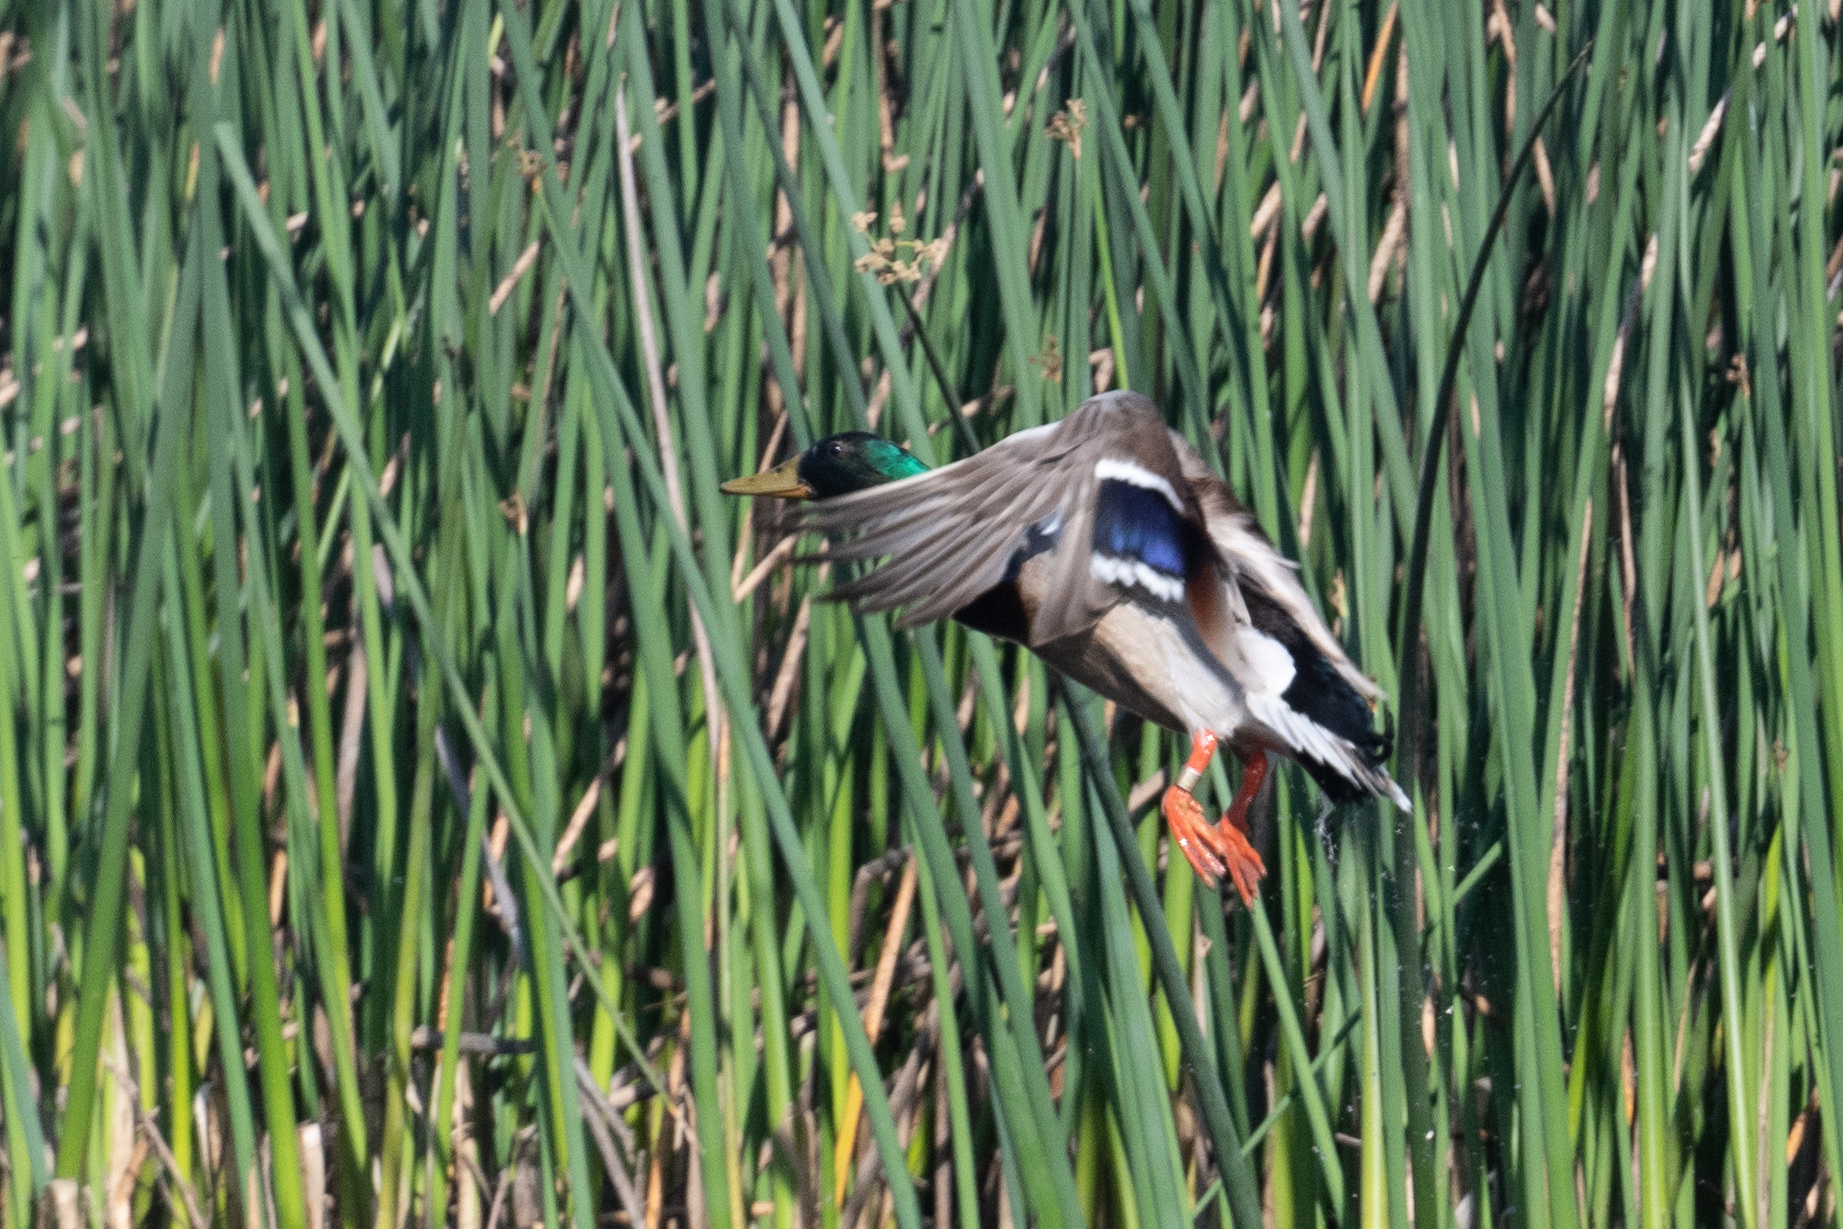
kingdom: Animalia
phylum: Chordata
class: Aves
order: Anseriformes
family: Anatidae
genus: Anas
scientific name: Anas platyrhynchos
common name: Mallard
